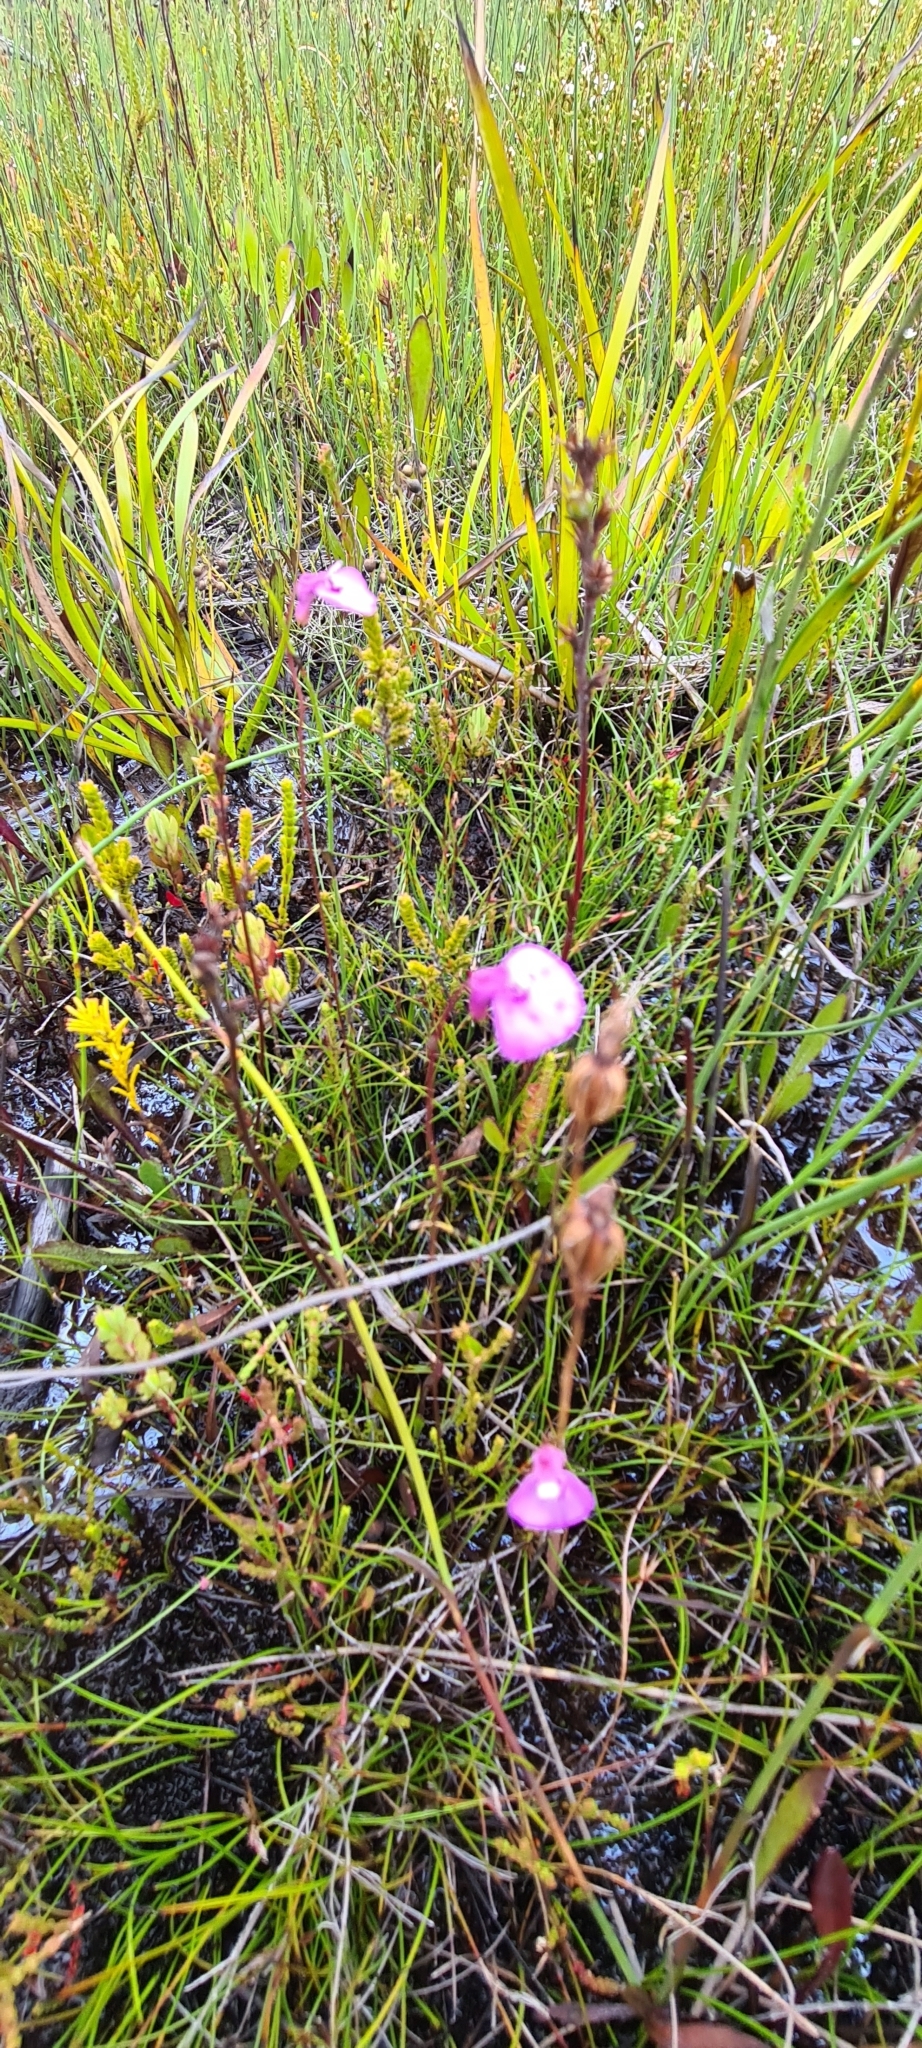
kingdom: Plantae
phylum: Tracheophyta
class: Magnoliopsida
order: Lamiales
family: Lentibulariaceae
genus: Utricularia
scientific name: Utricularia uniflora
